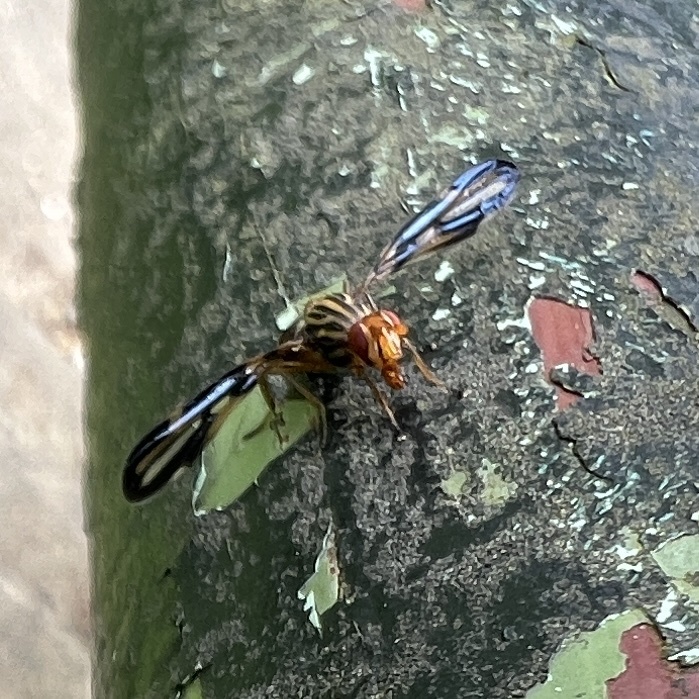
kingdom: Animalia
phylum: Arthropoda
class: Insecta
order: Diptera
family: Ulidiidae
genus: Idana
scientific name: Idana marginata
